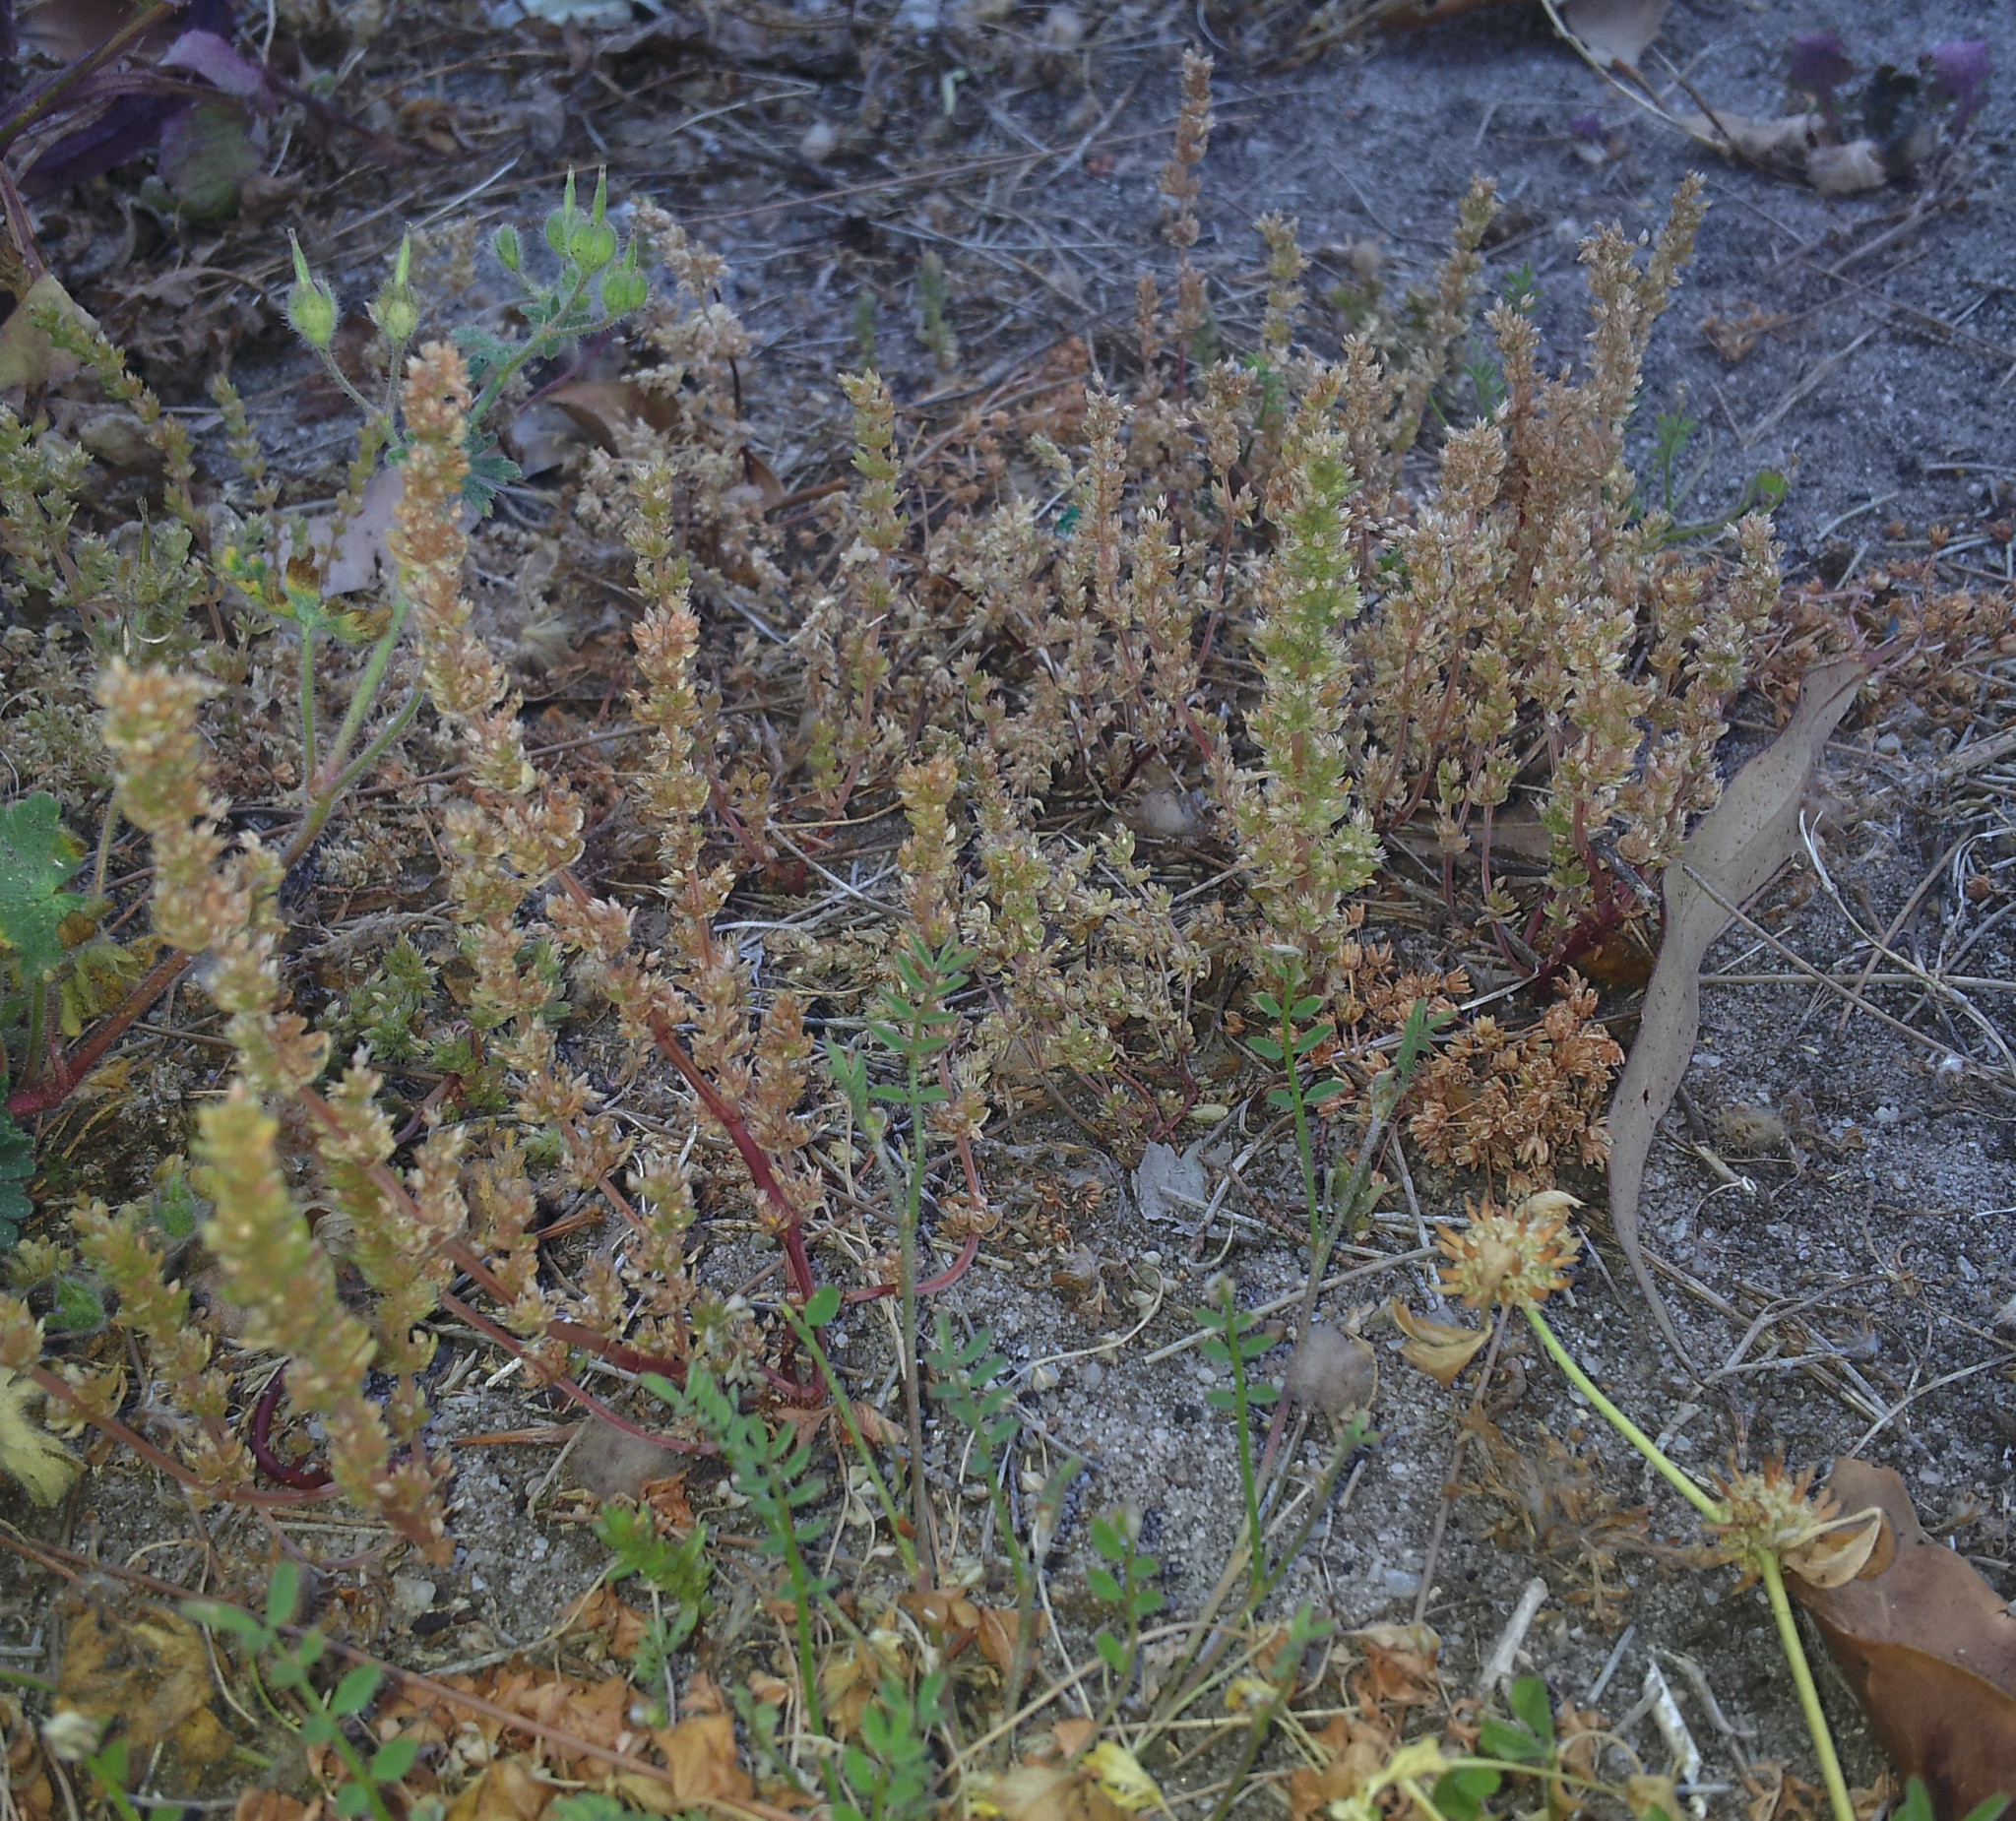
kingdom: Plantae
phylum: Tracheophyta
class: Magnoliopsida
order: Saxifragales
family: Crassulaceae
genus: Crassula
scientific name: Crassula colligata
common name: Pygmyweed
